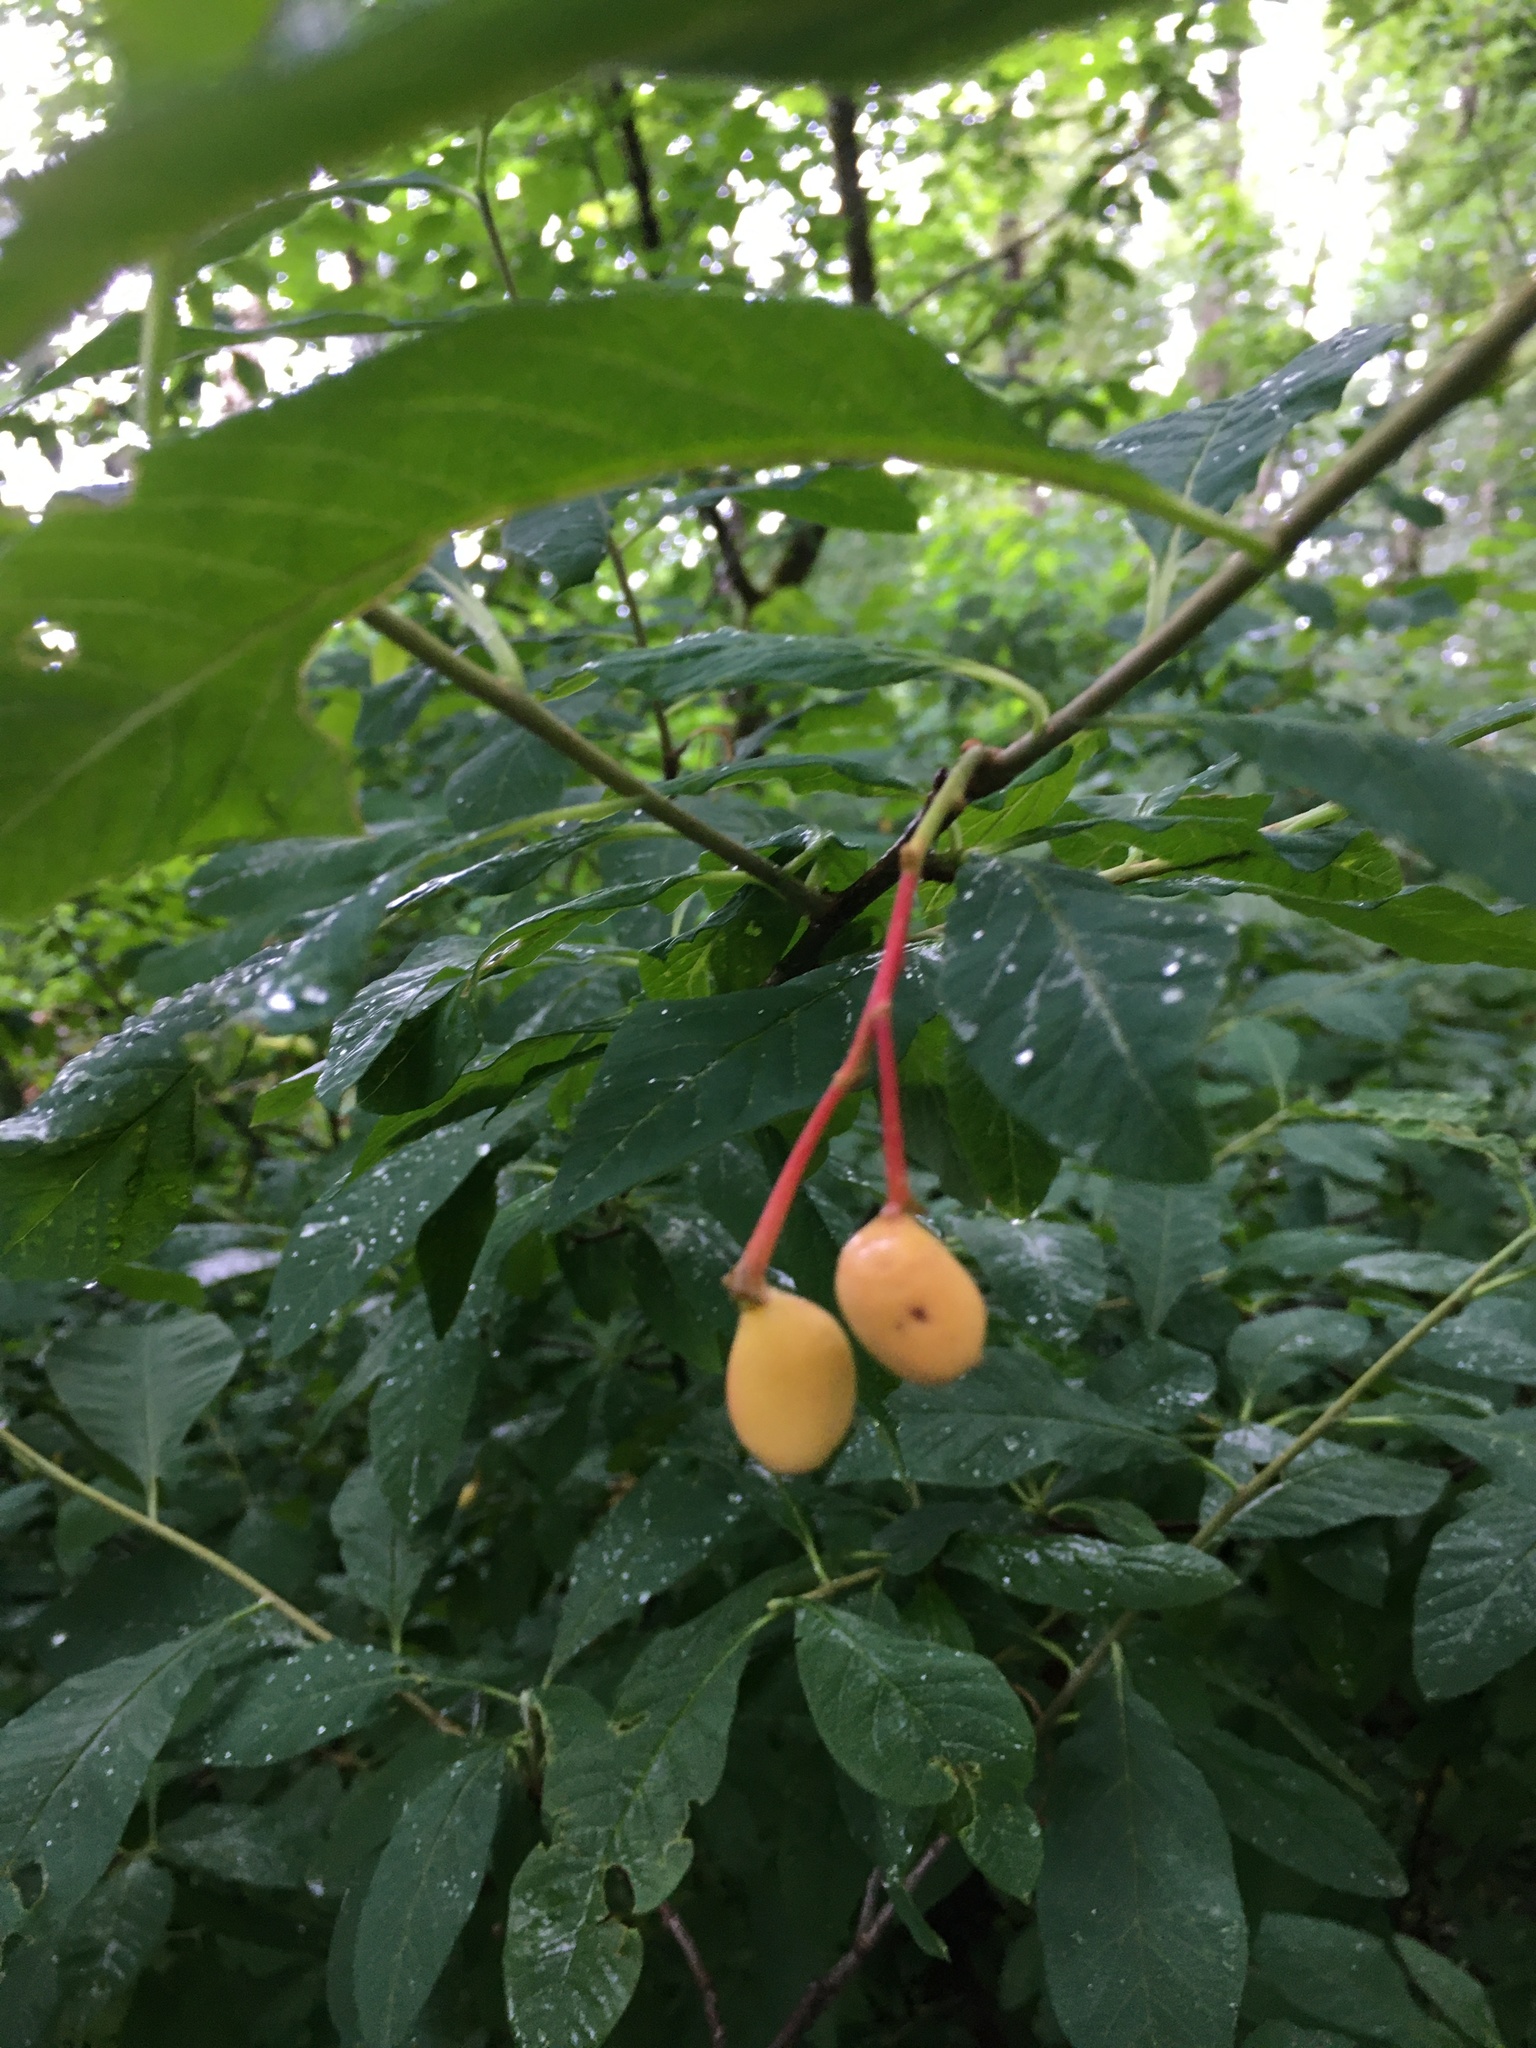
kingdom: Plantae
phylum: Tracheophyta
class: Magnoliopsida
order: Rosales
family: Rosaceae
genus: Oemleria
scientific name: Oemleria cerasiformis
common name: Osoberry
